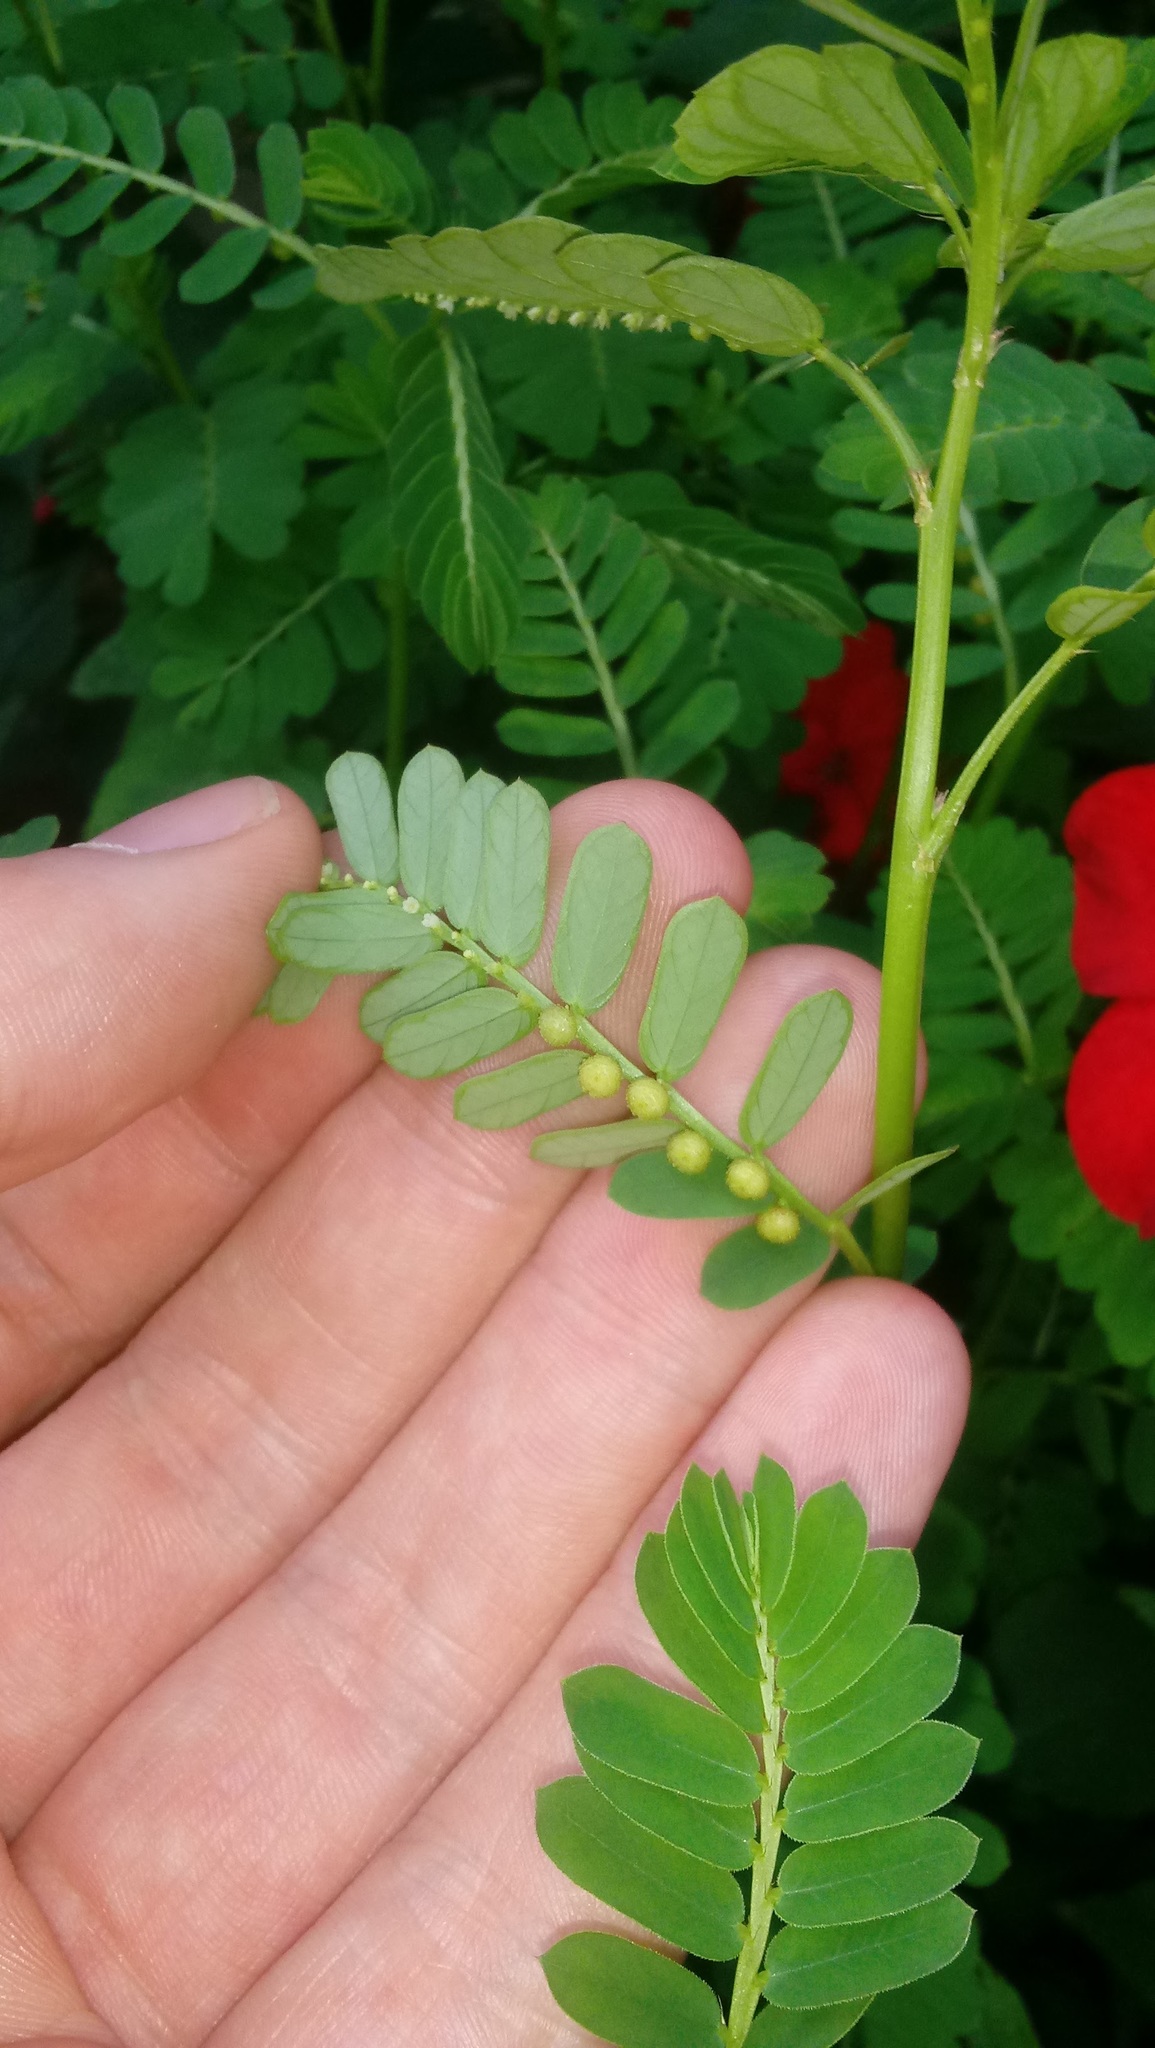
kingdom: Plantae
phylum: Tracheophyta
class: Magnoliopsida
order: Malpighiales
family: Phyllanthaceae
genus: Phyllanthus
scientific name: Phyllanthus urinaria
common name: Chamber bitter
